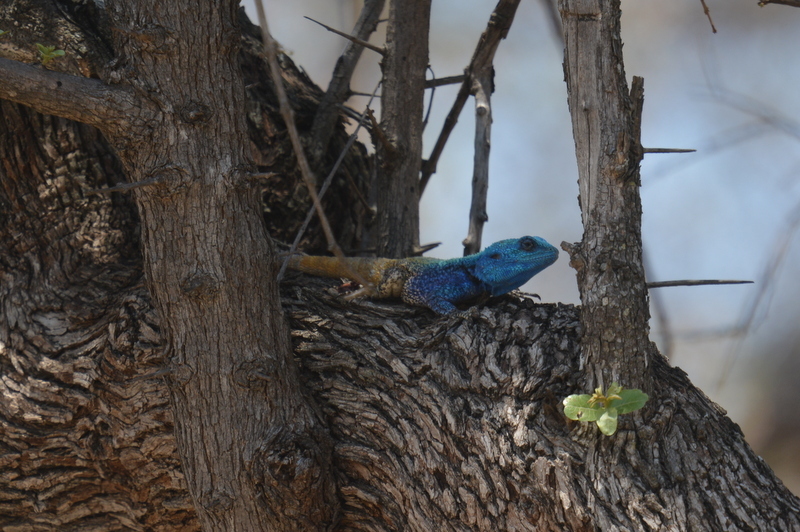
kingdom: Animalia
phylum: Chordata
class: Squamata
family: Agamidae
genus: Acanthocercus
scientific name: Acanthocercus atricollis
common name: Southern tree agama
